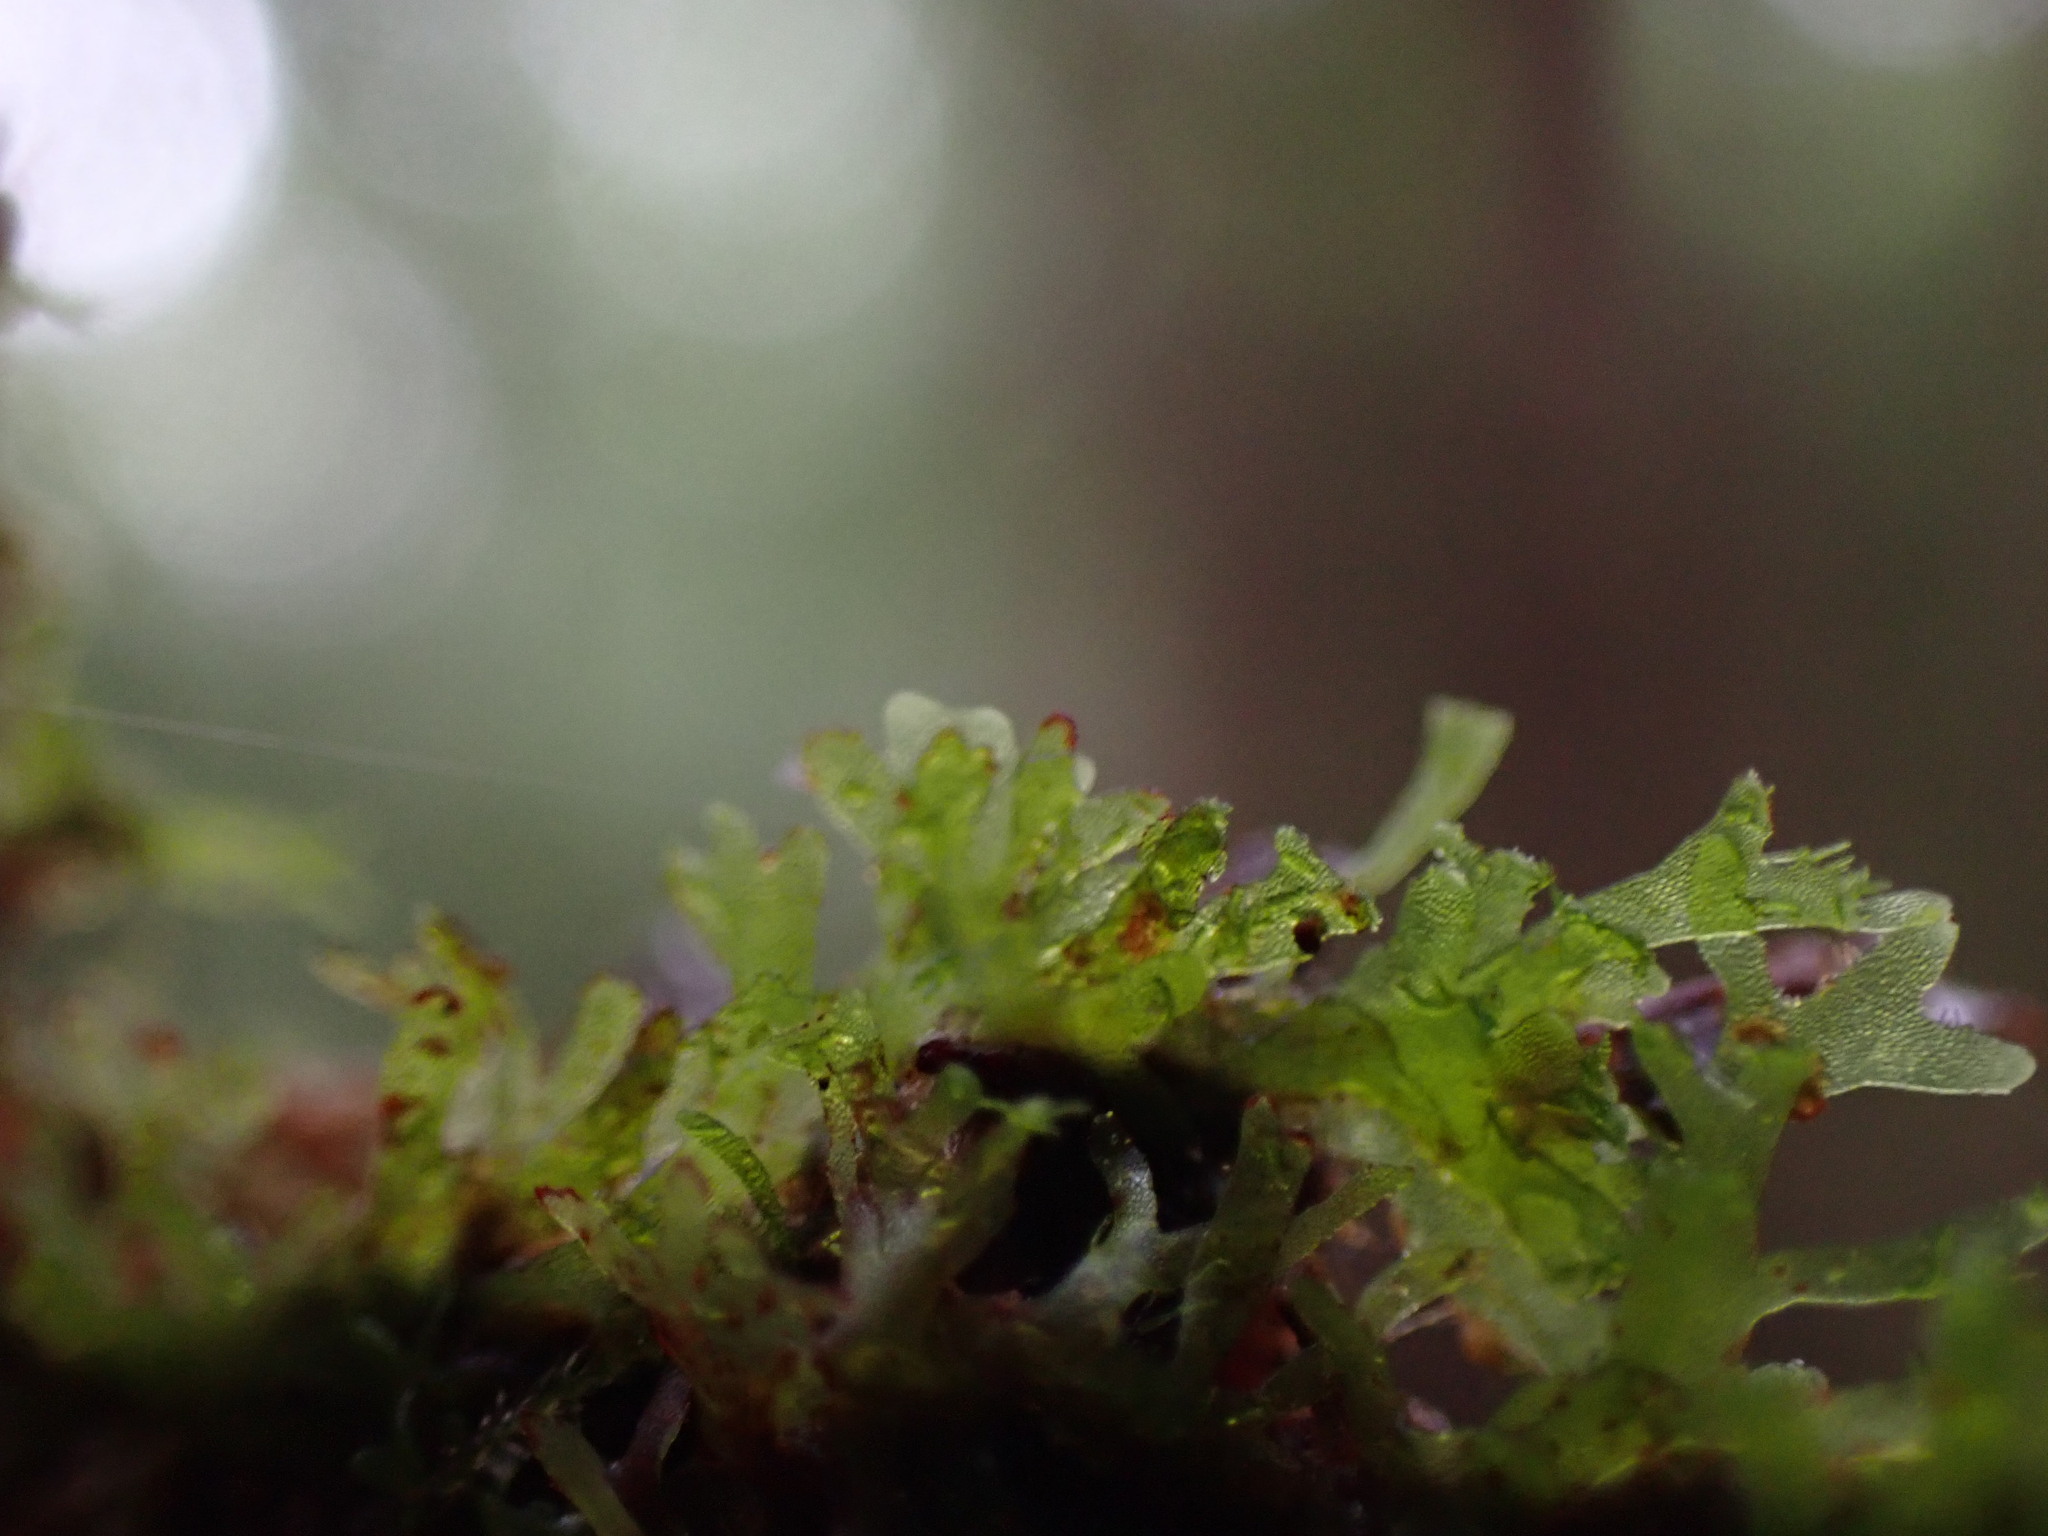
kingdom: Plantae
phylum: Tracheophyta
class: Polypodiopsida
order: Hymenophyllales
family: Hymenophyllaceae
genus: Hymenophyllum
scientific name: Hymenophyllum wrightii
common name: Wright's filmy fern
